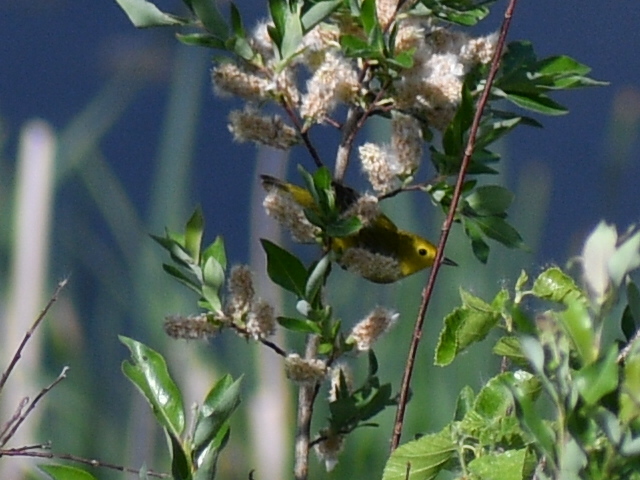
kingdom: Animalia
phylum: Chordata
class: Aves
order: Passeriformes
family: Parulidae
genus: Setophaga
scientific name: Setophaga petechia
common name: Yellow warbler
